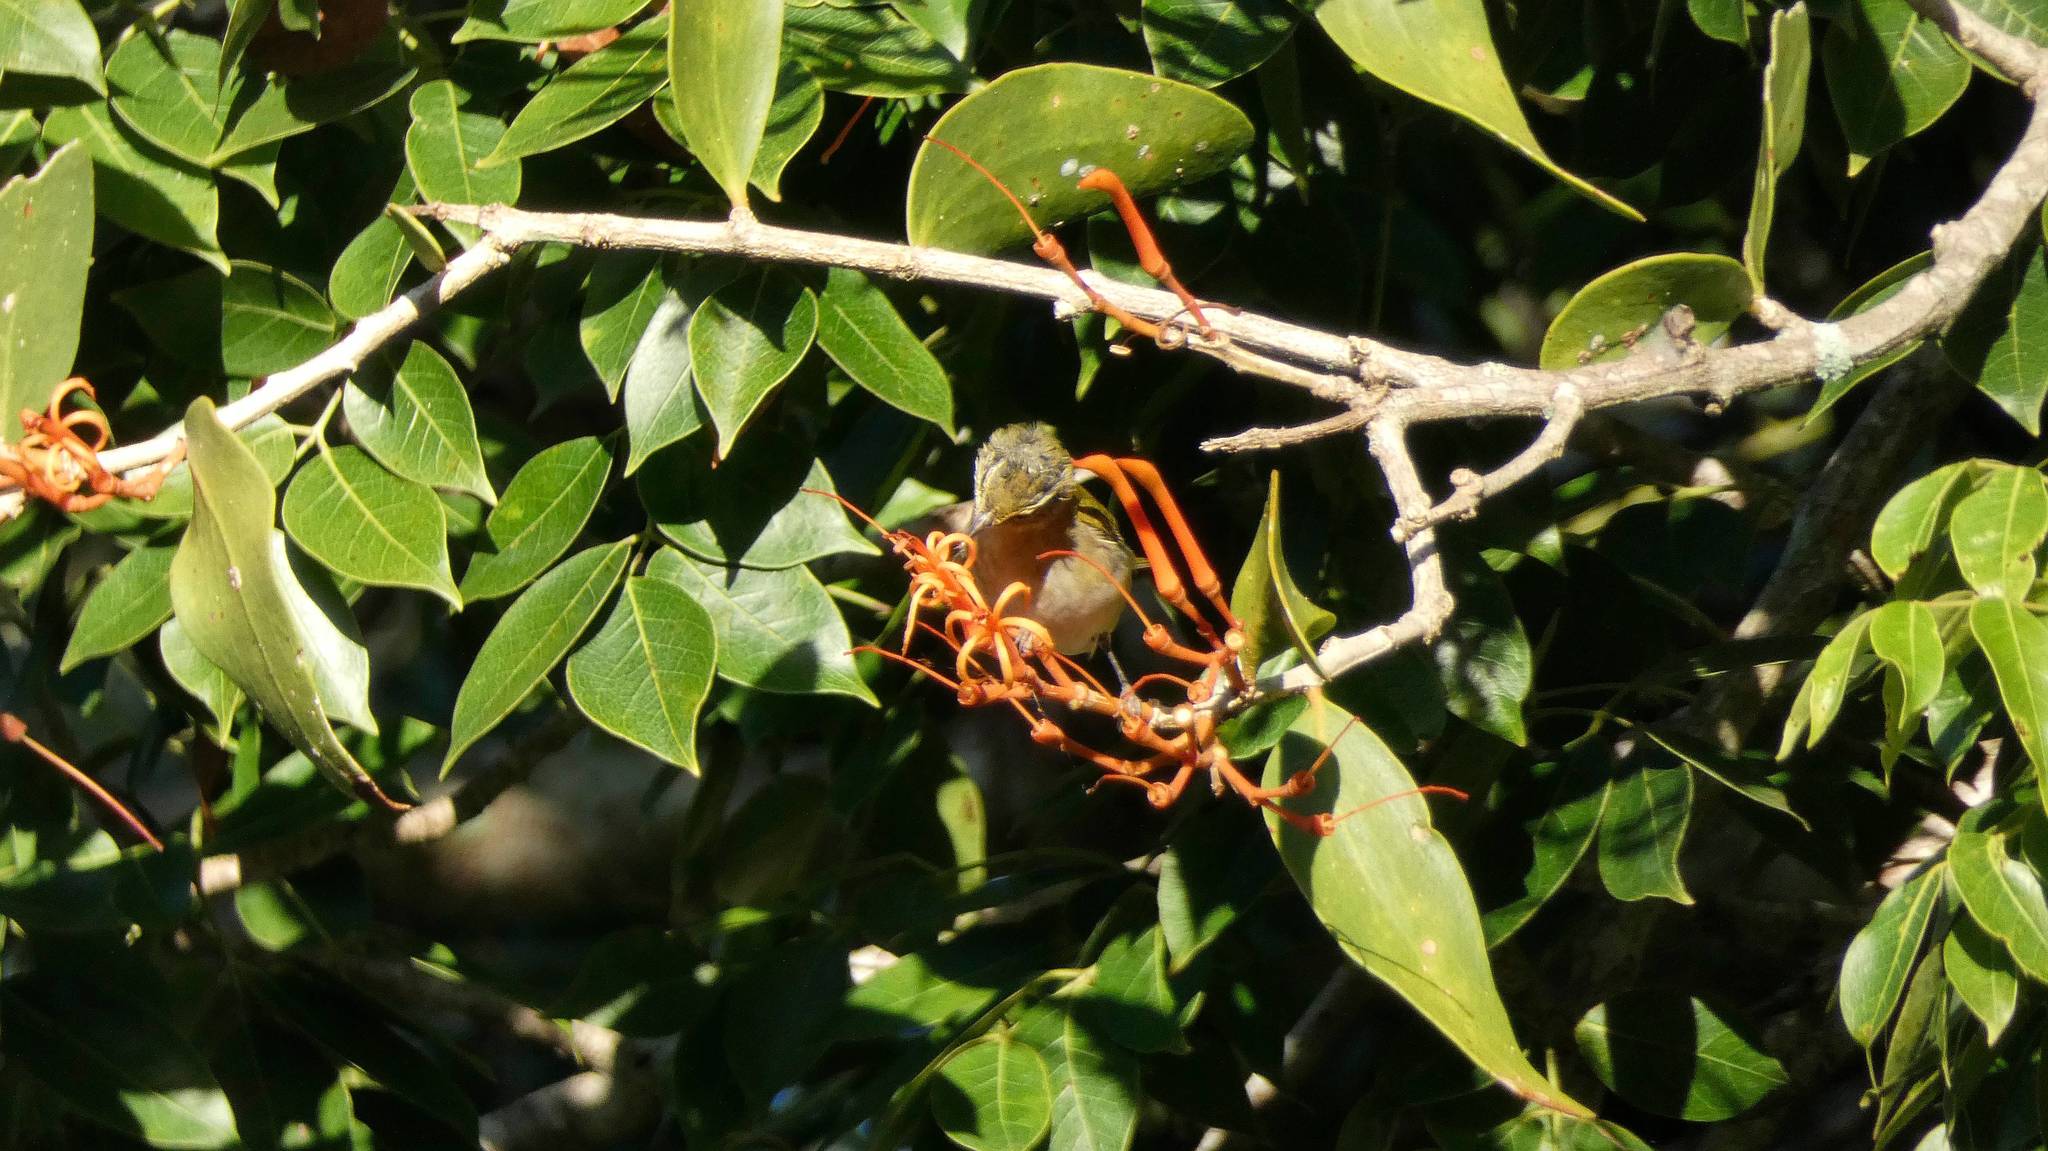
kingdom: Animalia
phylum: Chordata
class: Aves
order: Passeriformes
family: Parulidae
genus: Leiothlypis
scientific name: Leiothlypis peregrina
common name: Tennessee warbler
